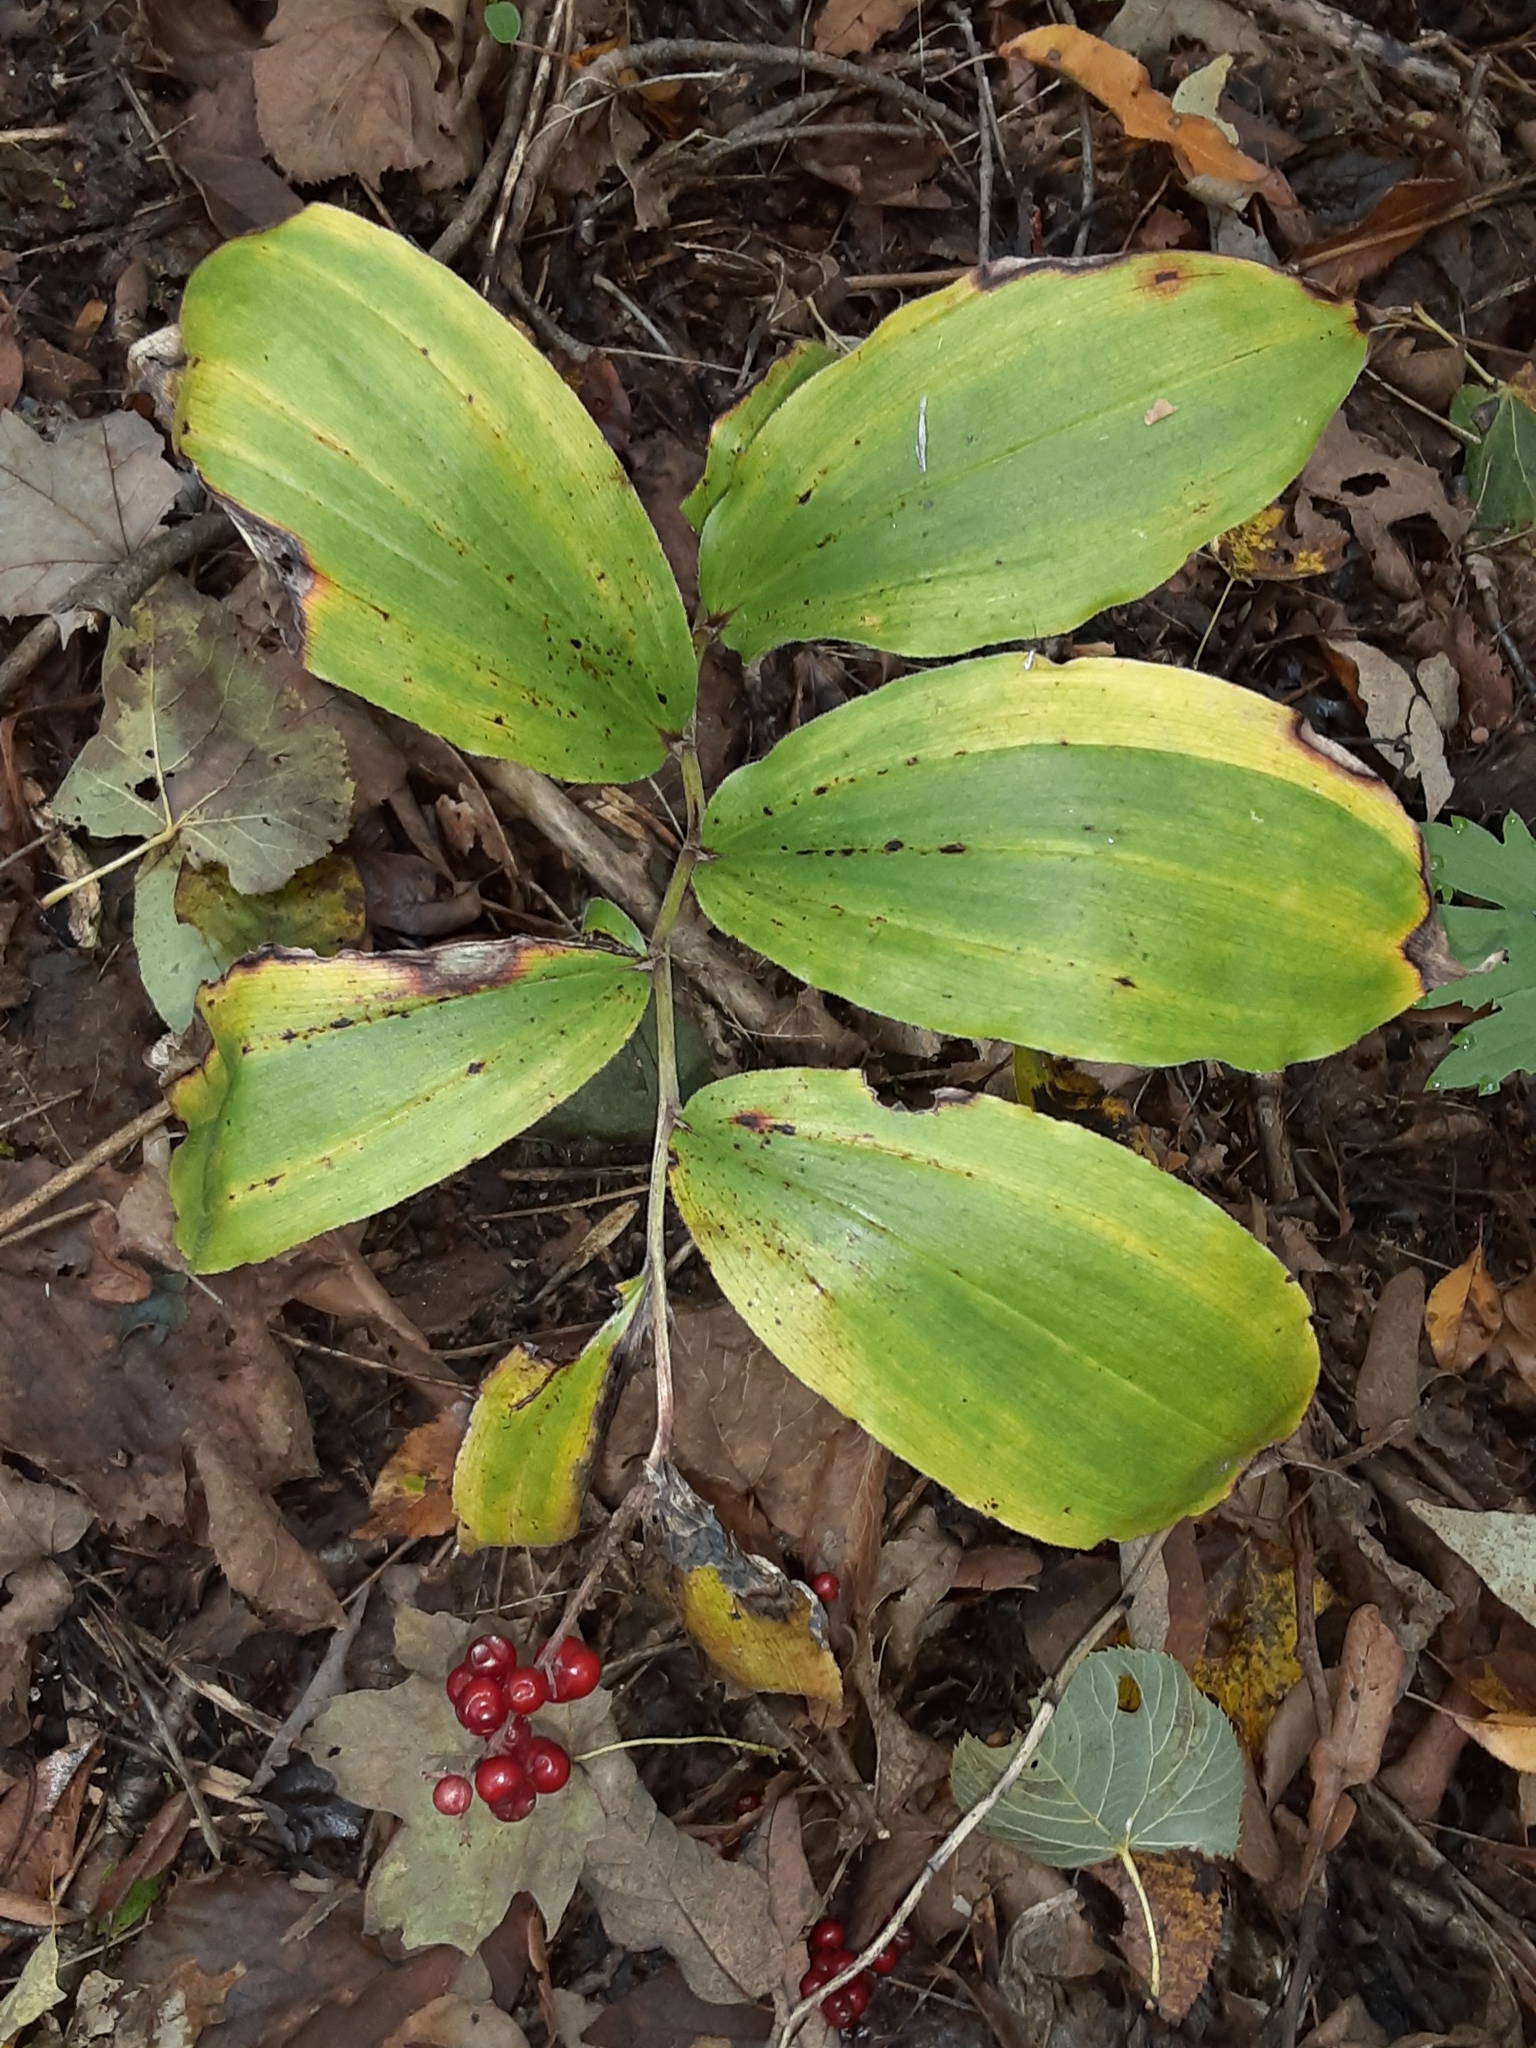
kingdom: Plantae
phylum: Tracheophyta
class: Liliopsida
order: Asparagales
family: Asparagaceae
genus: Maianthemum
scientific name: Maianthemum racemosum
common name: False spikenard
